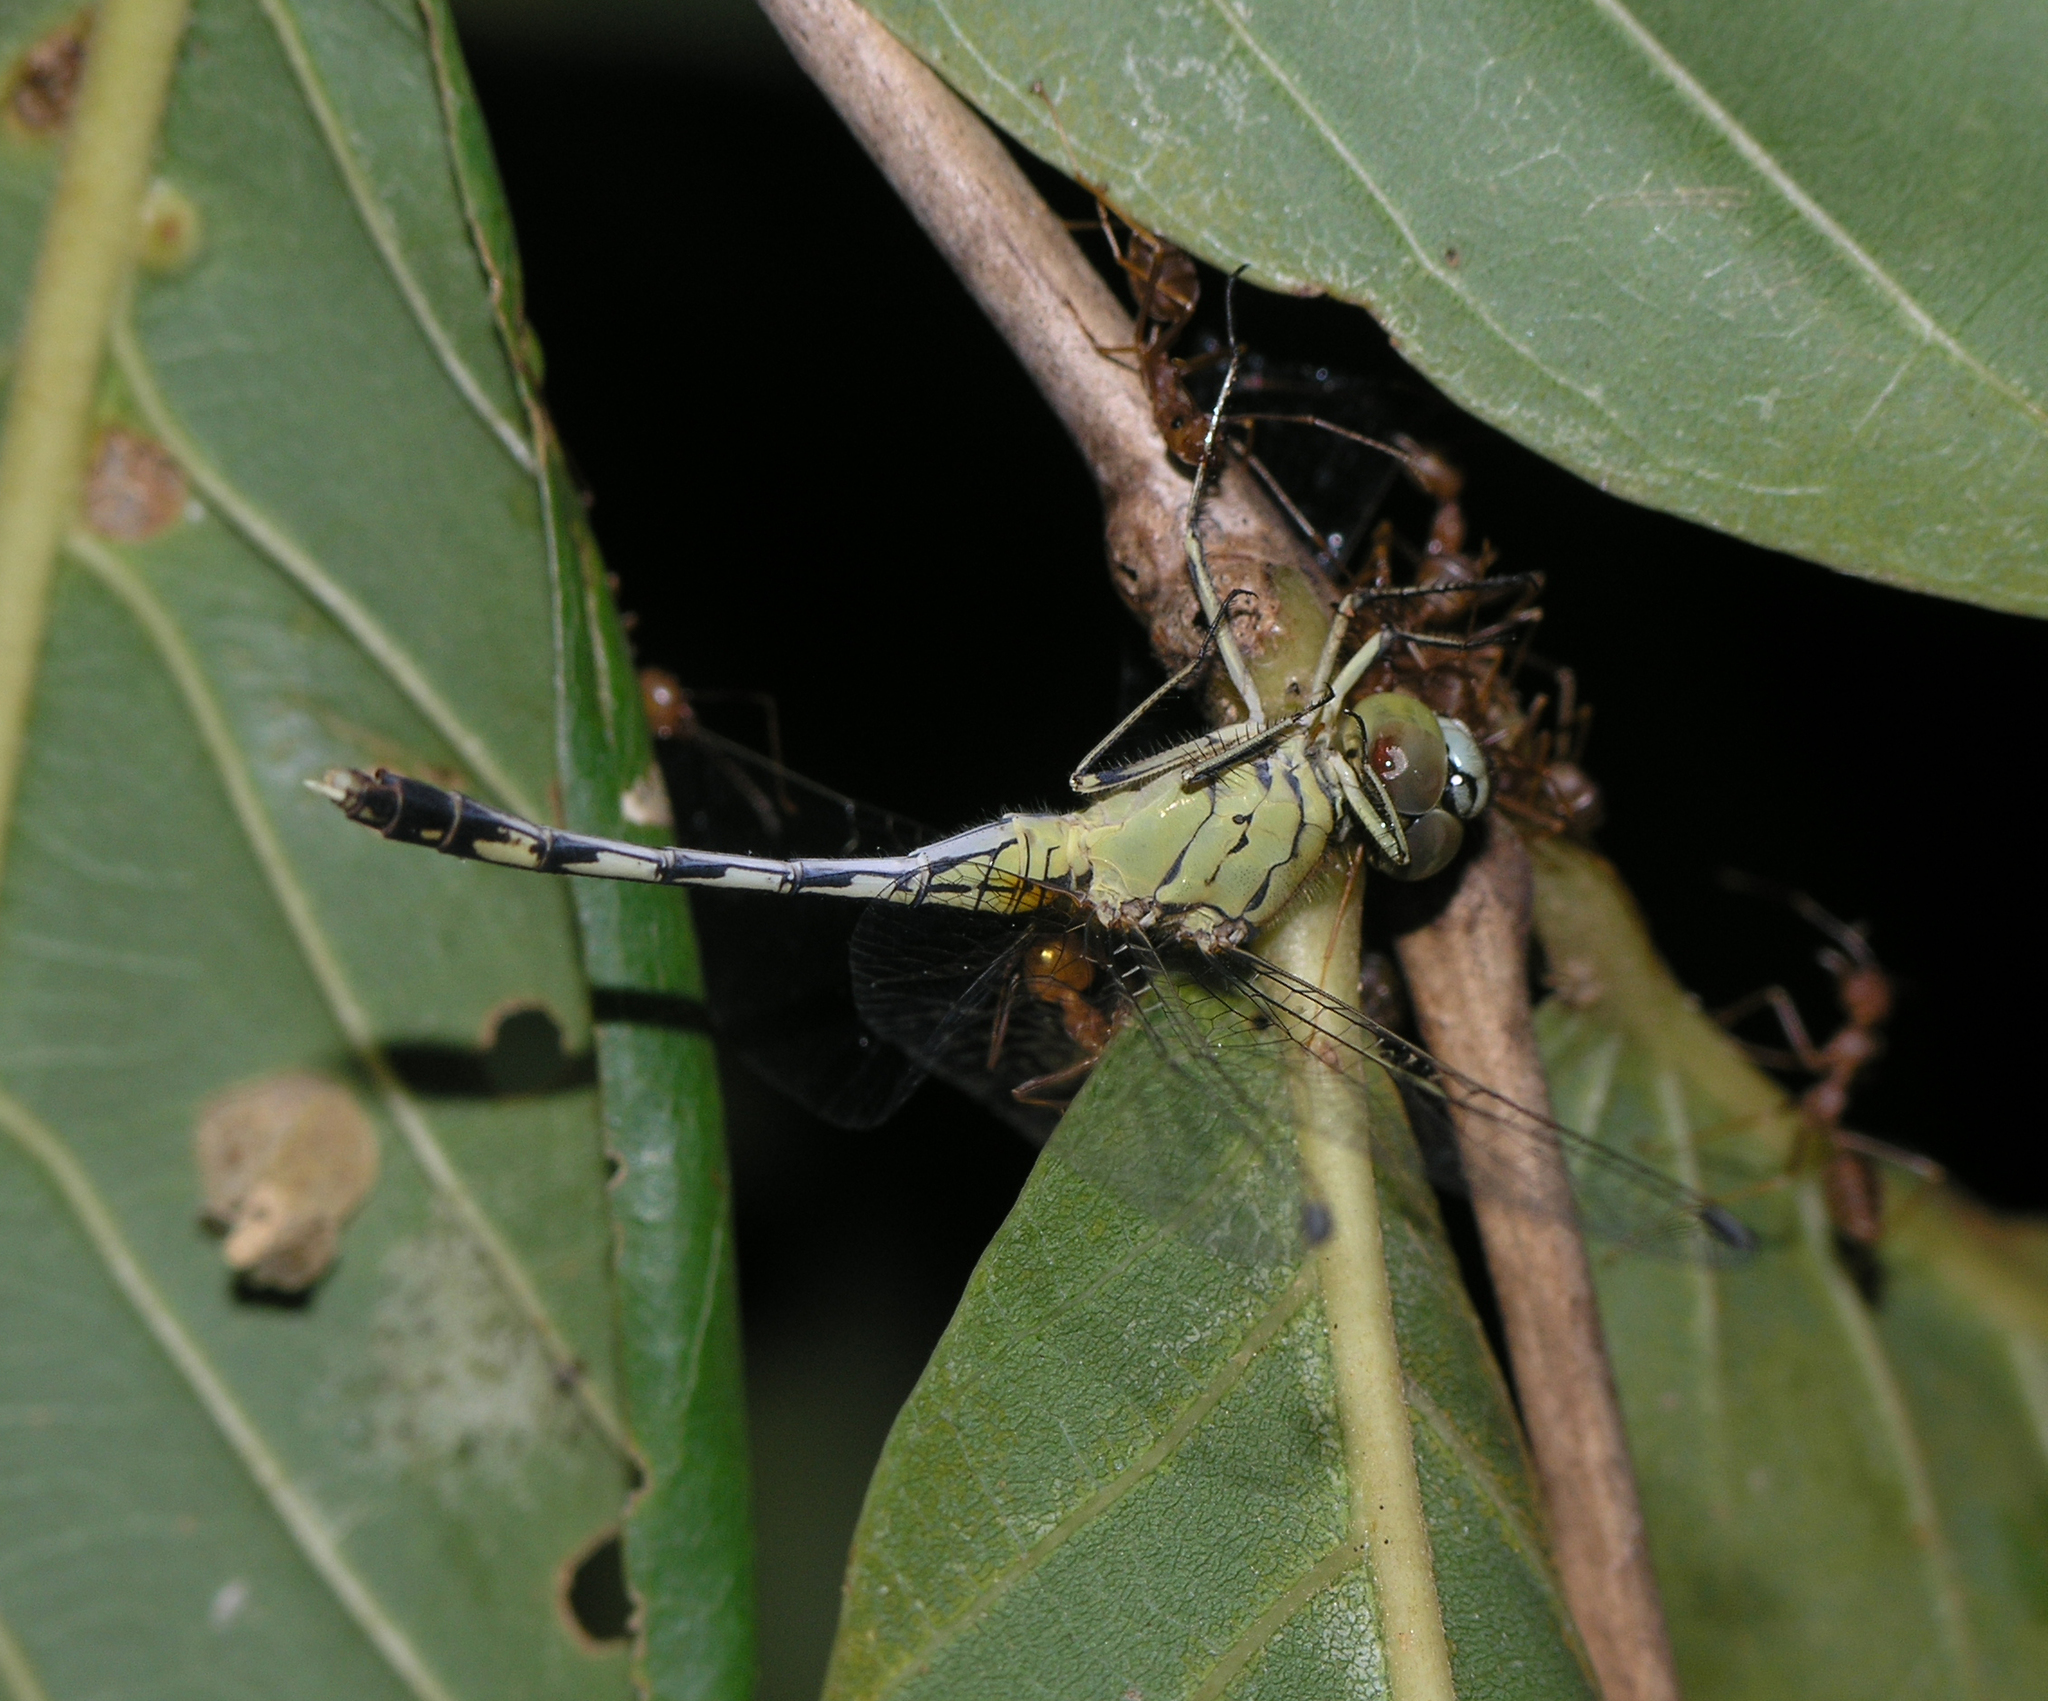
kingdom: Animalia
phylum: Arthropoda
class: Insecta
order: Odonata
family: Libellulidae
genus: Diplacodes
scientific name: Diplacodes trivialis
